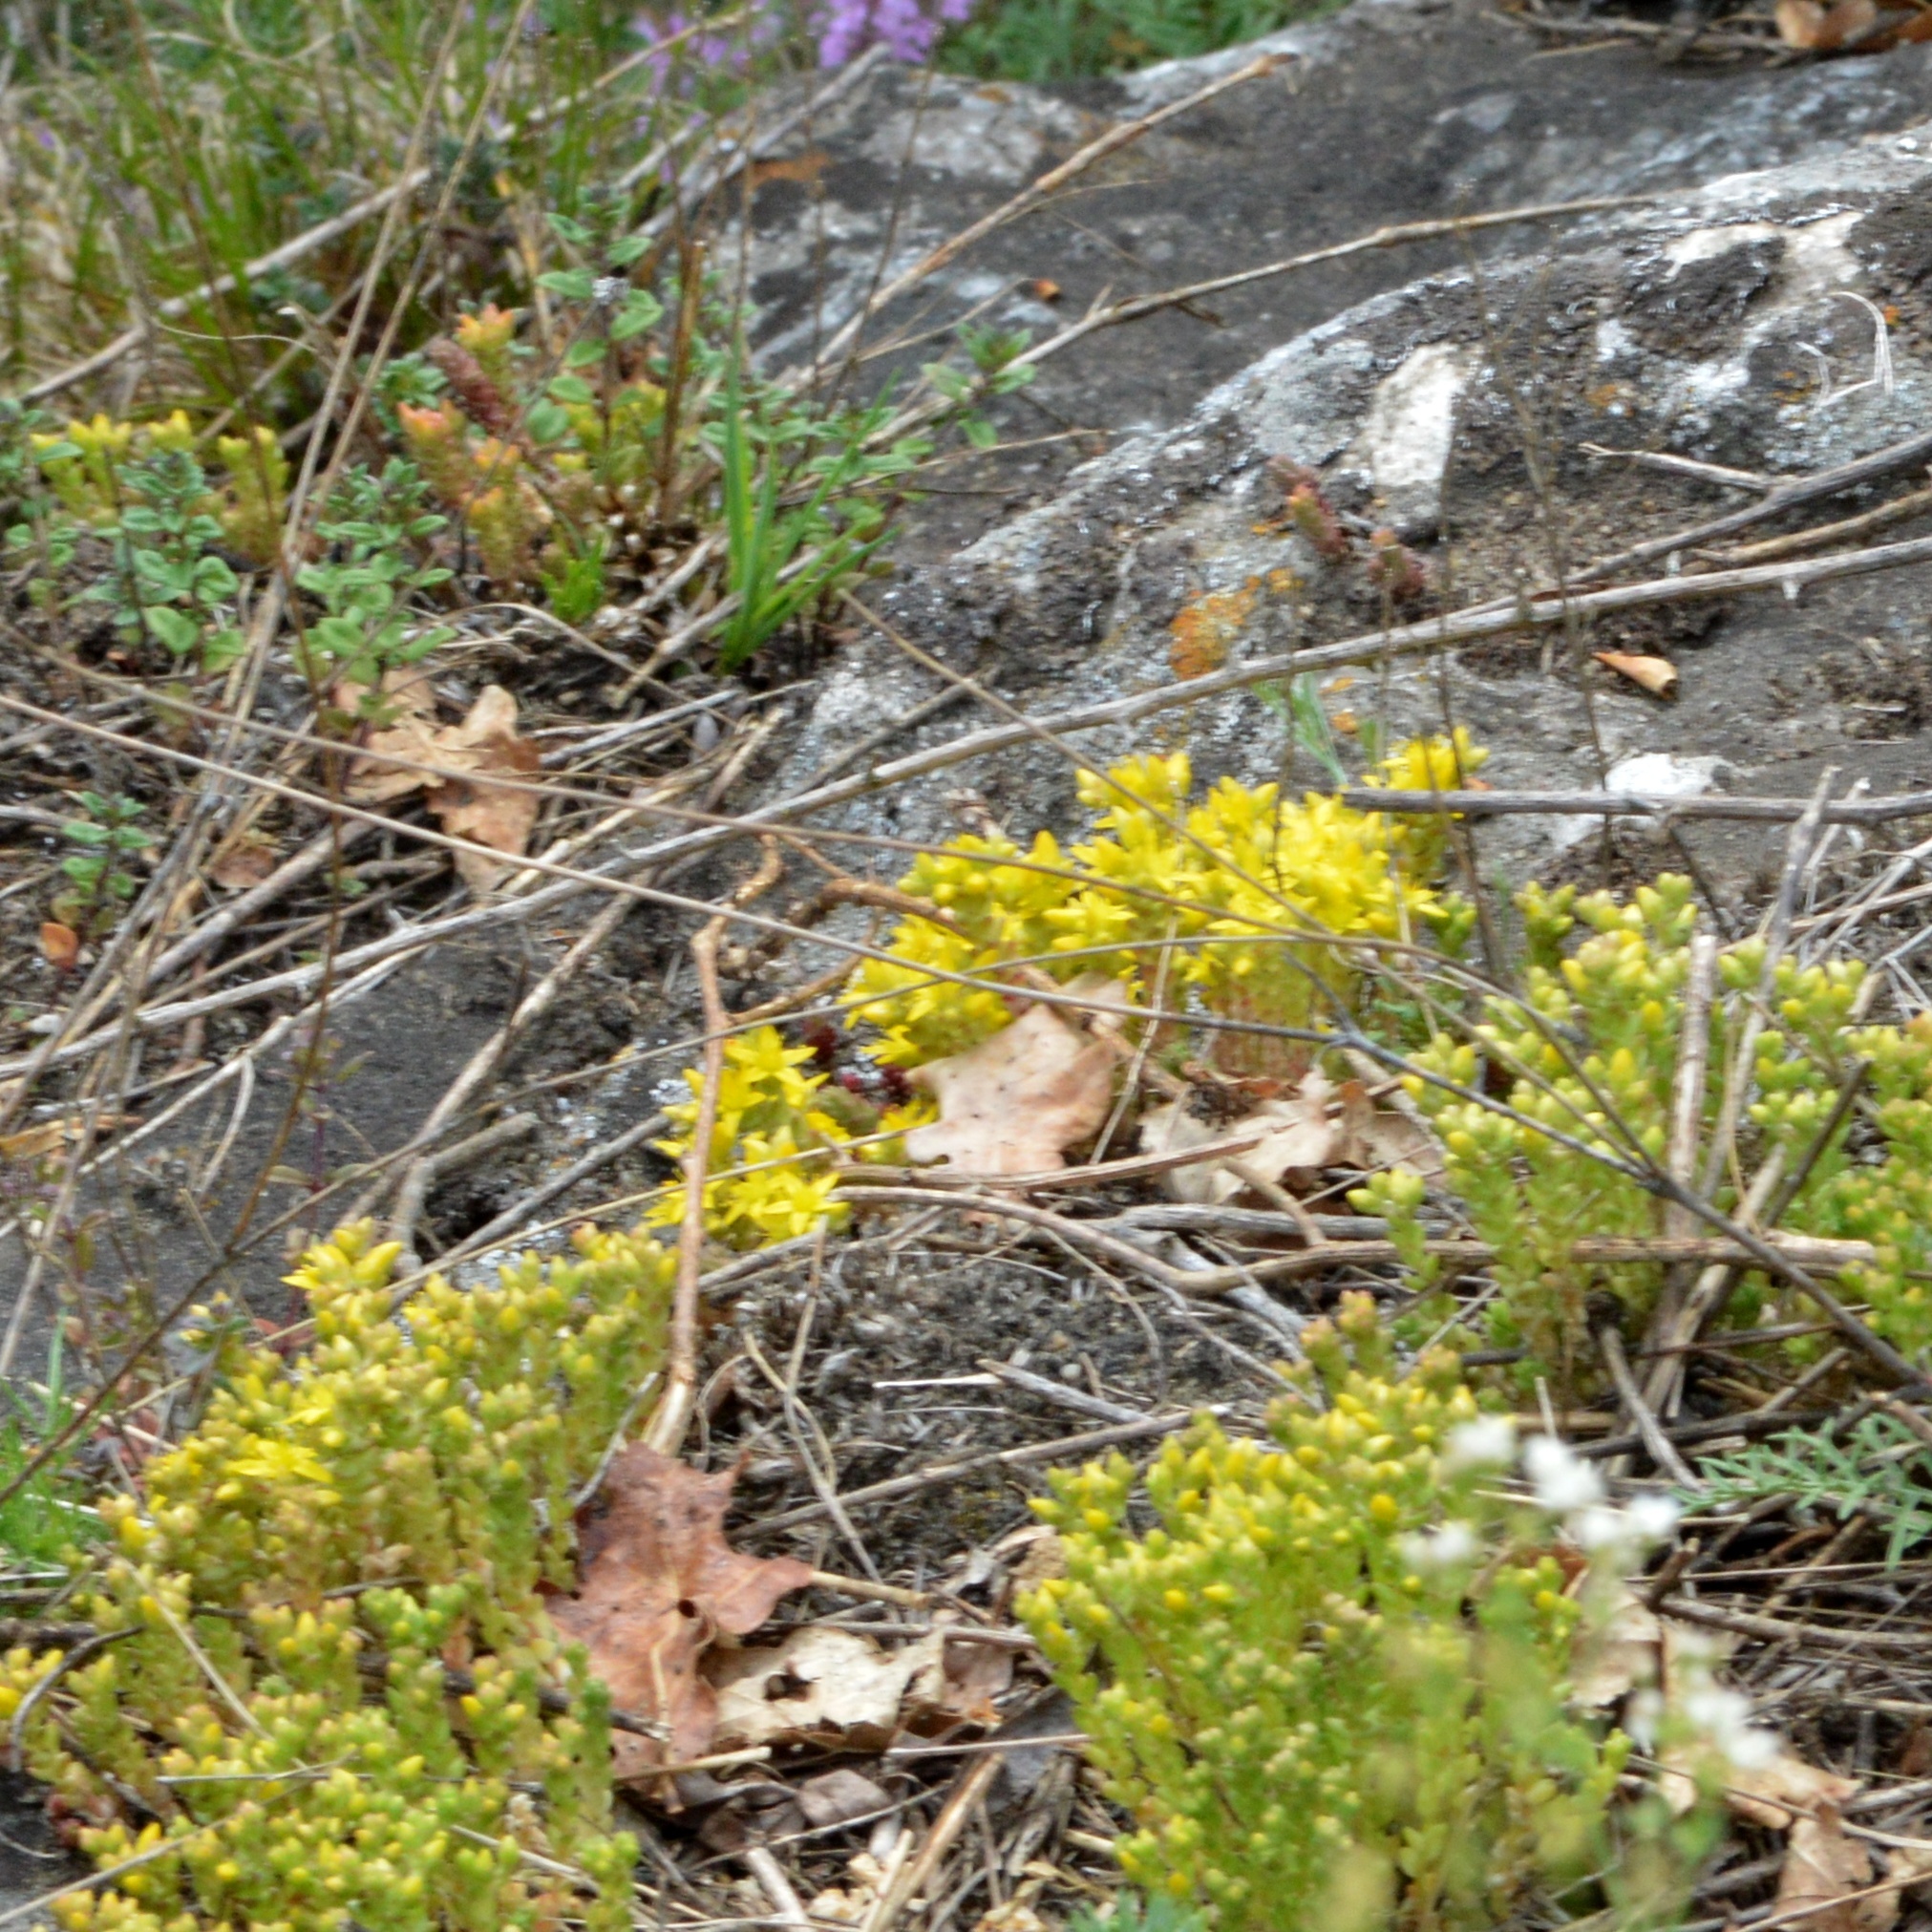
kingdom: Plantae
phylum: Tracheophyta
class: Magnoliopsida
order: Saxifragales
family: Crassulaceae
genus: Sedum
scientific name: Sedum acre
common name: Biting stonecrop
